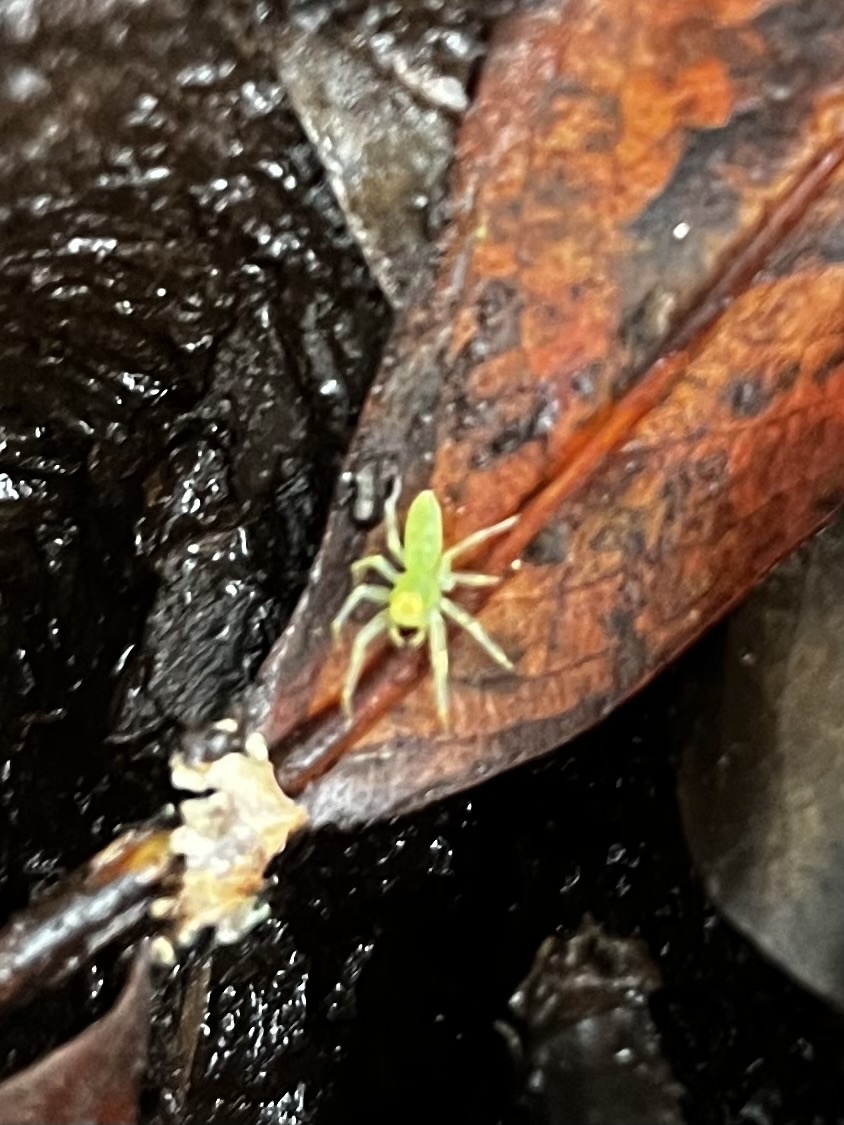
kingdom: Animalia
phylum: Arthropoda
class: Arachnida
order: Araneae
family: Salticidae
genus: Lyssomanes
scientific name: Lyssomanes viridis
